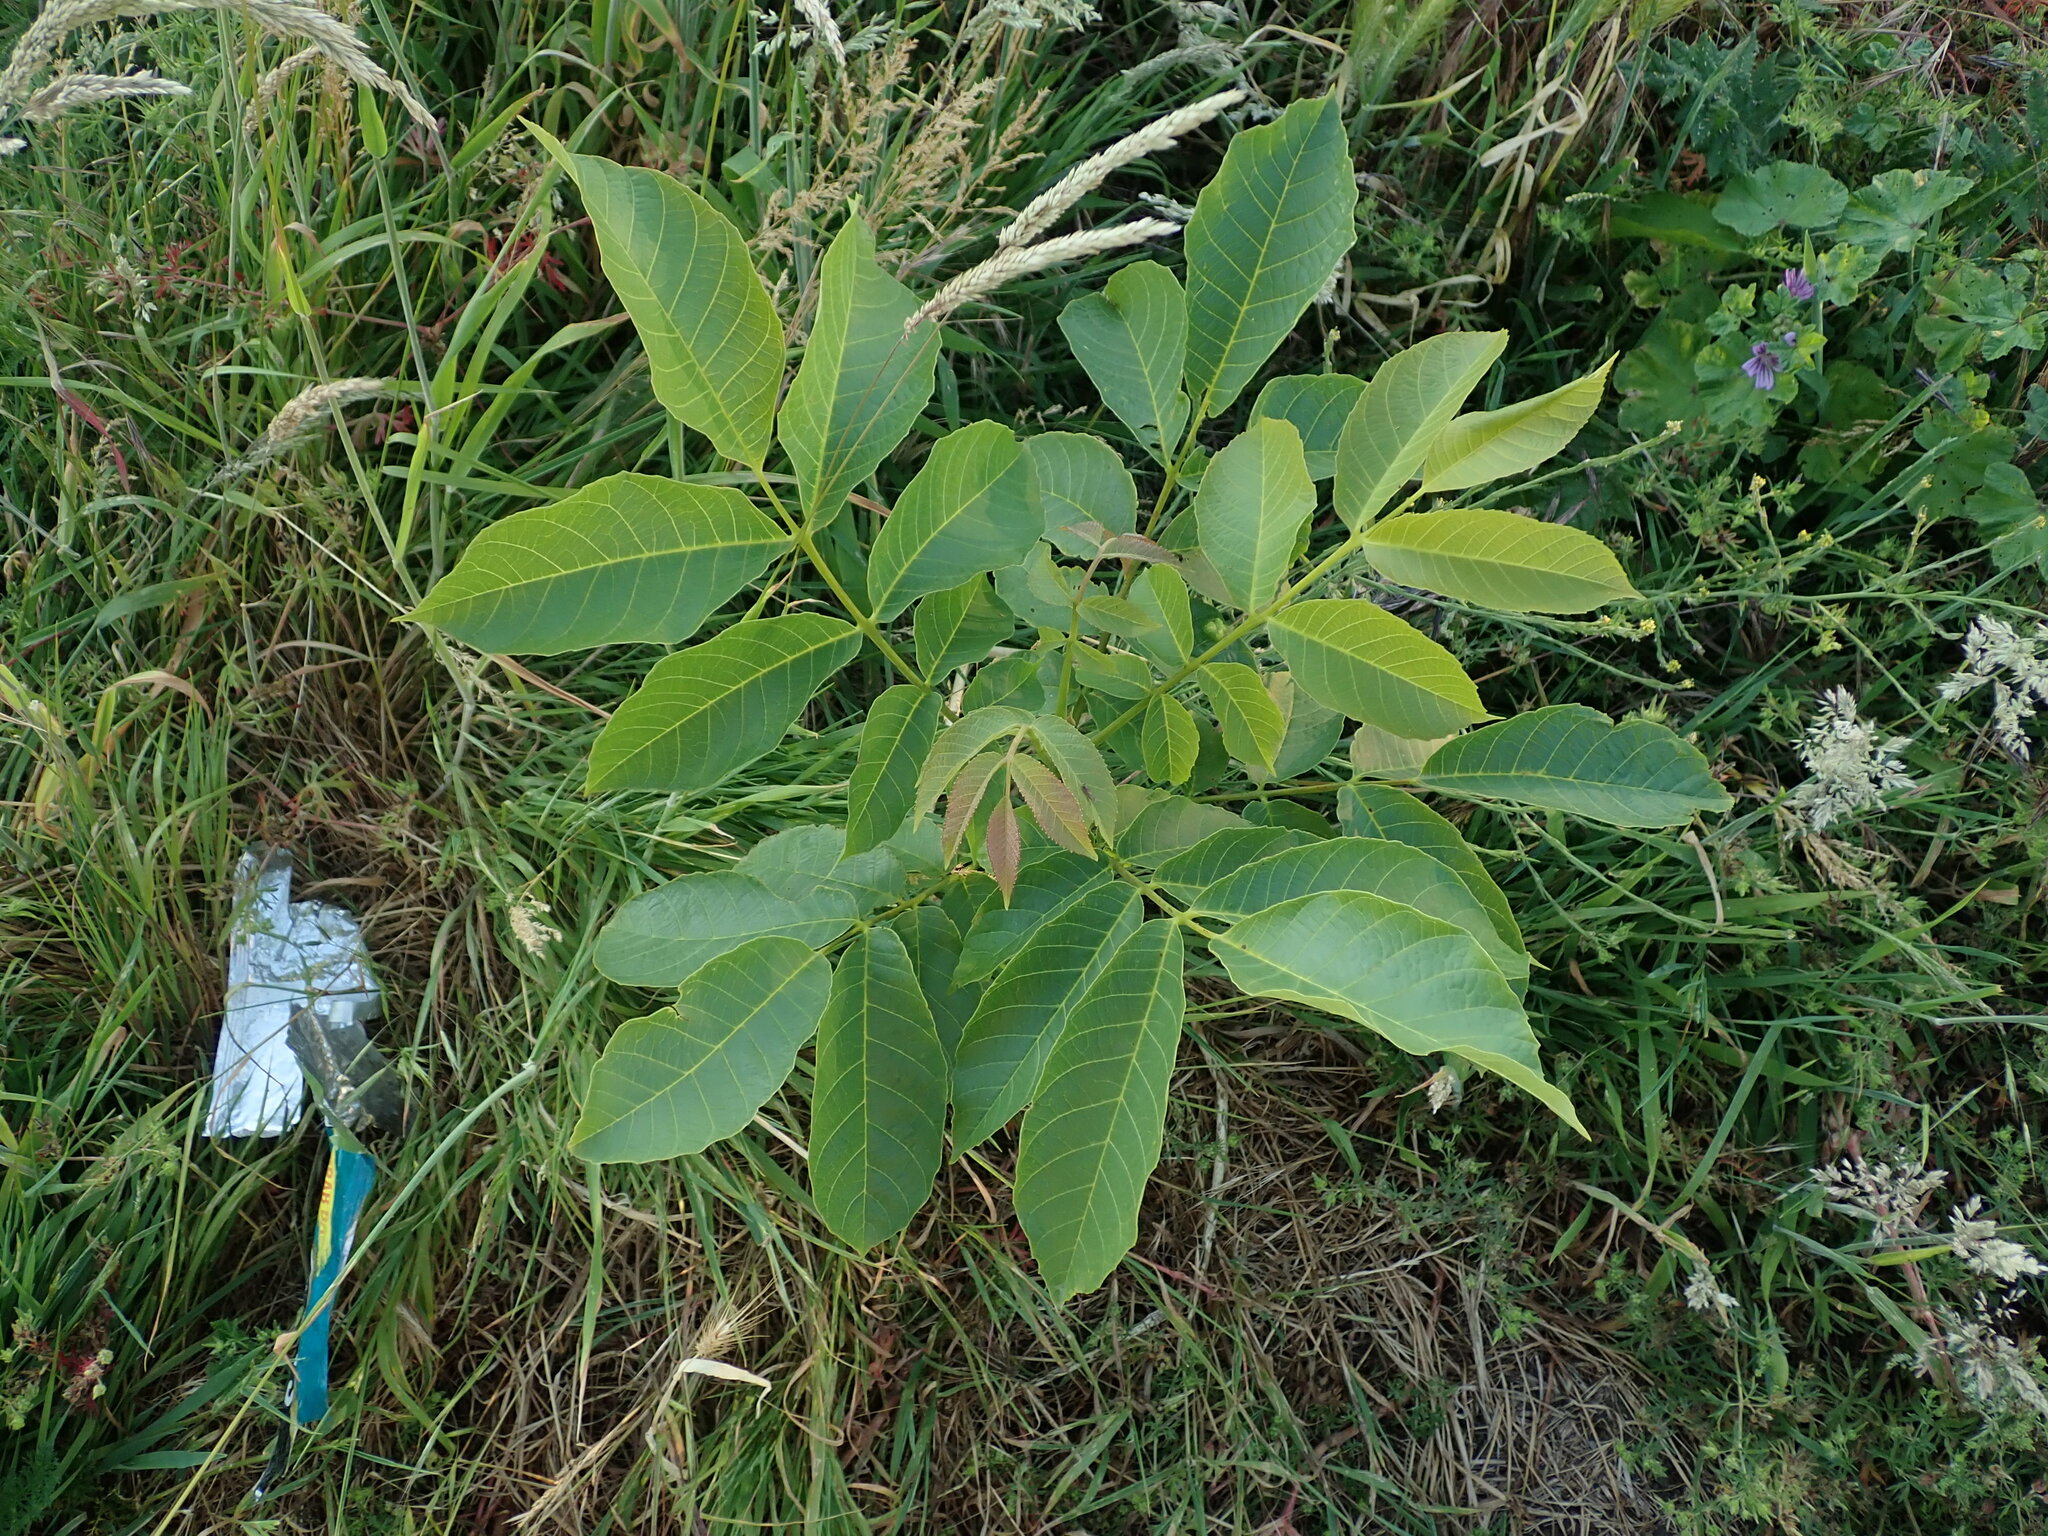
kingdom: Plantae
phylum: Tracheophyta
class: Magnoliopsida
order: Fagales
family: Juglandaceae
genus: Juglans
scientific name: Juglans regia
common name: Walnut
